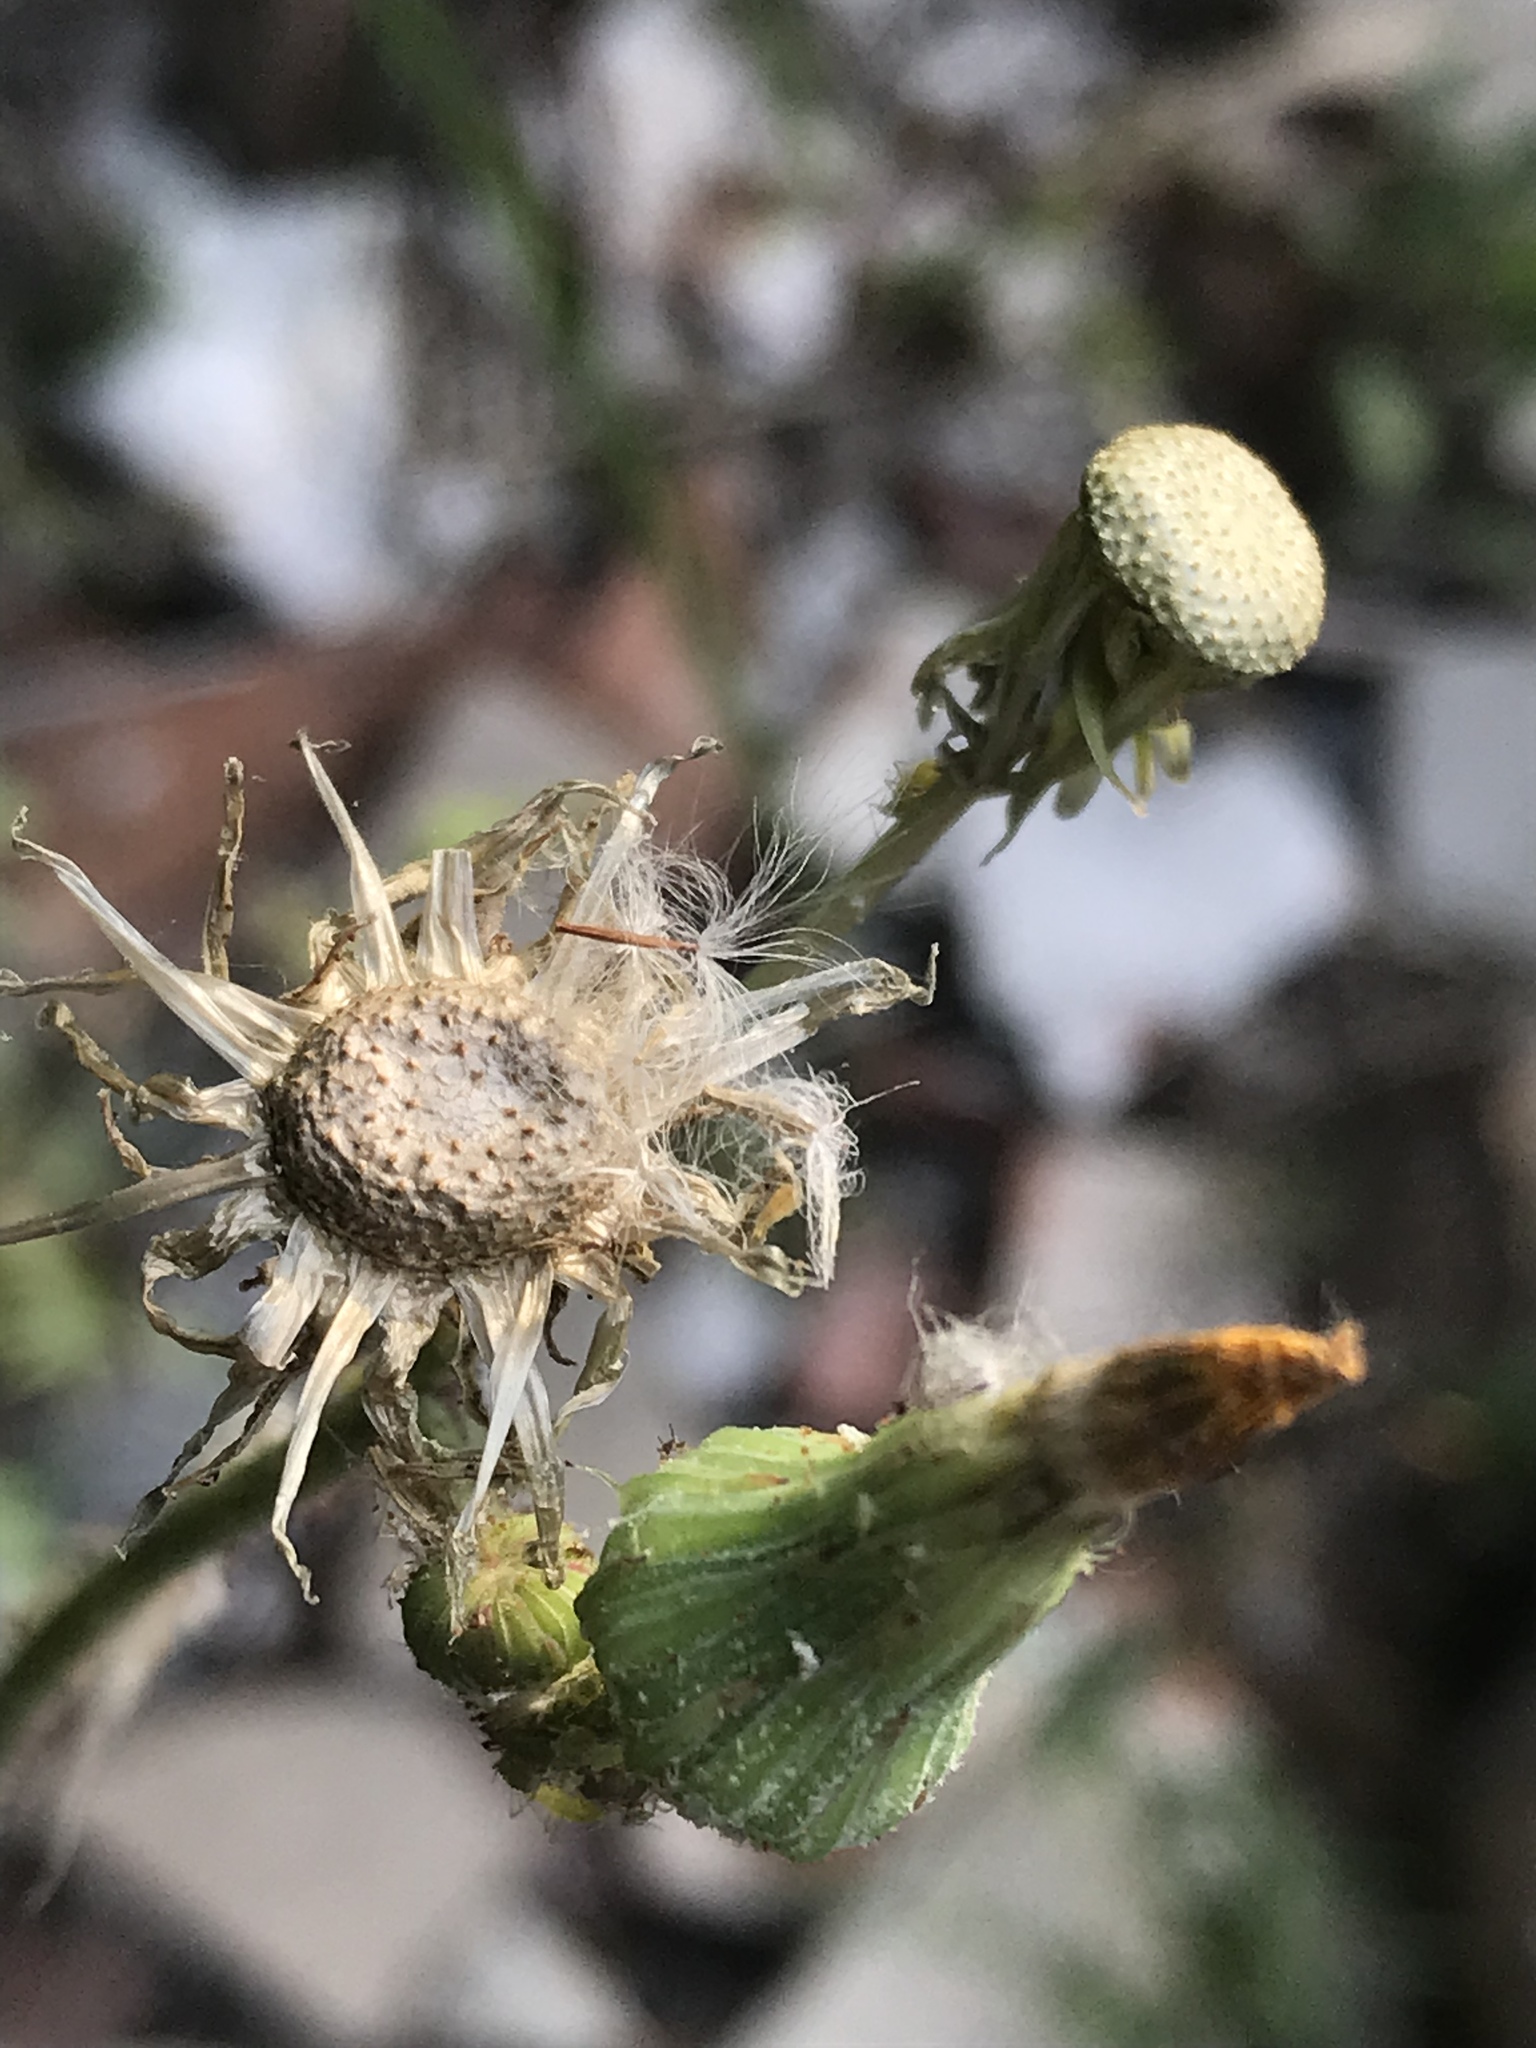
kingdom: Plantae
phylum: Tracheophyta
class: Magnoliopsida
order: Asterales
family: Asteraceae
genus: Sonchus
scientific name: Sonchus asper
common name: Prickly sow-thistle
